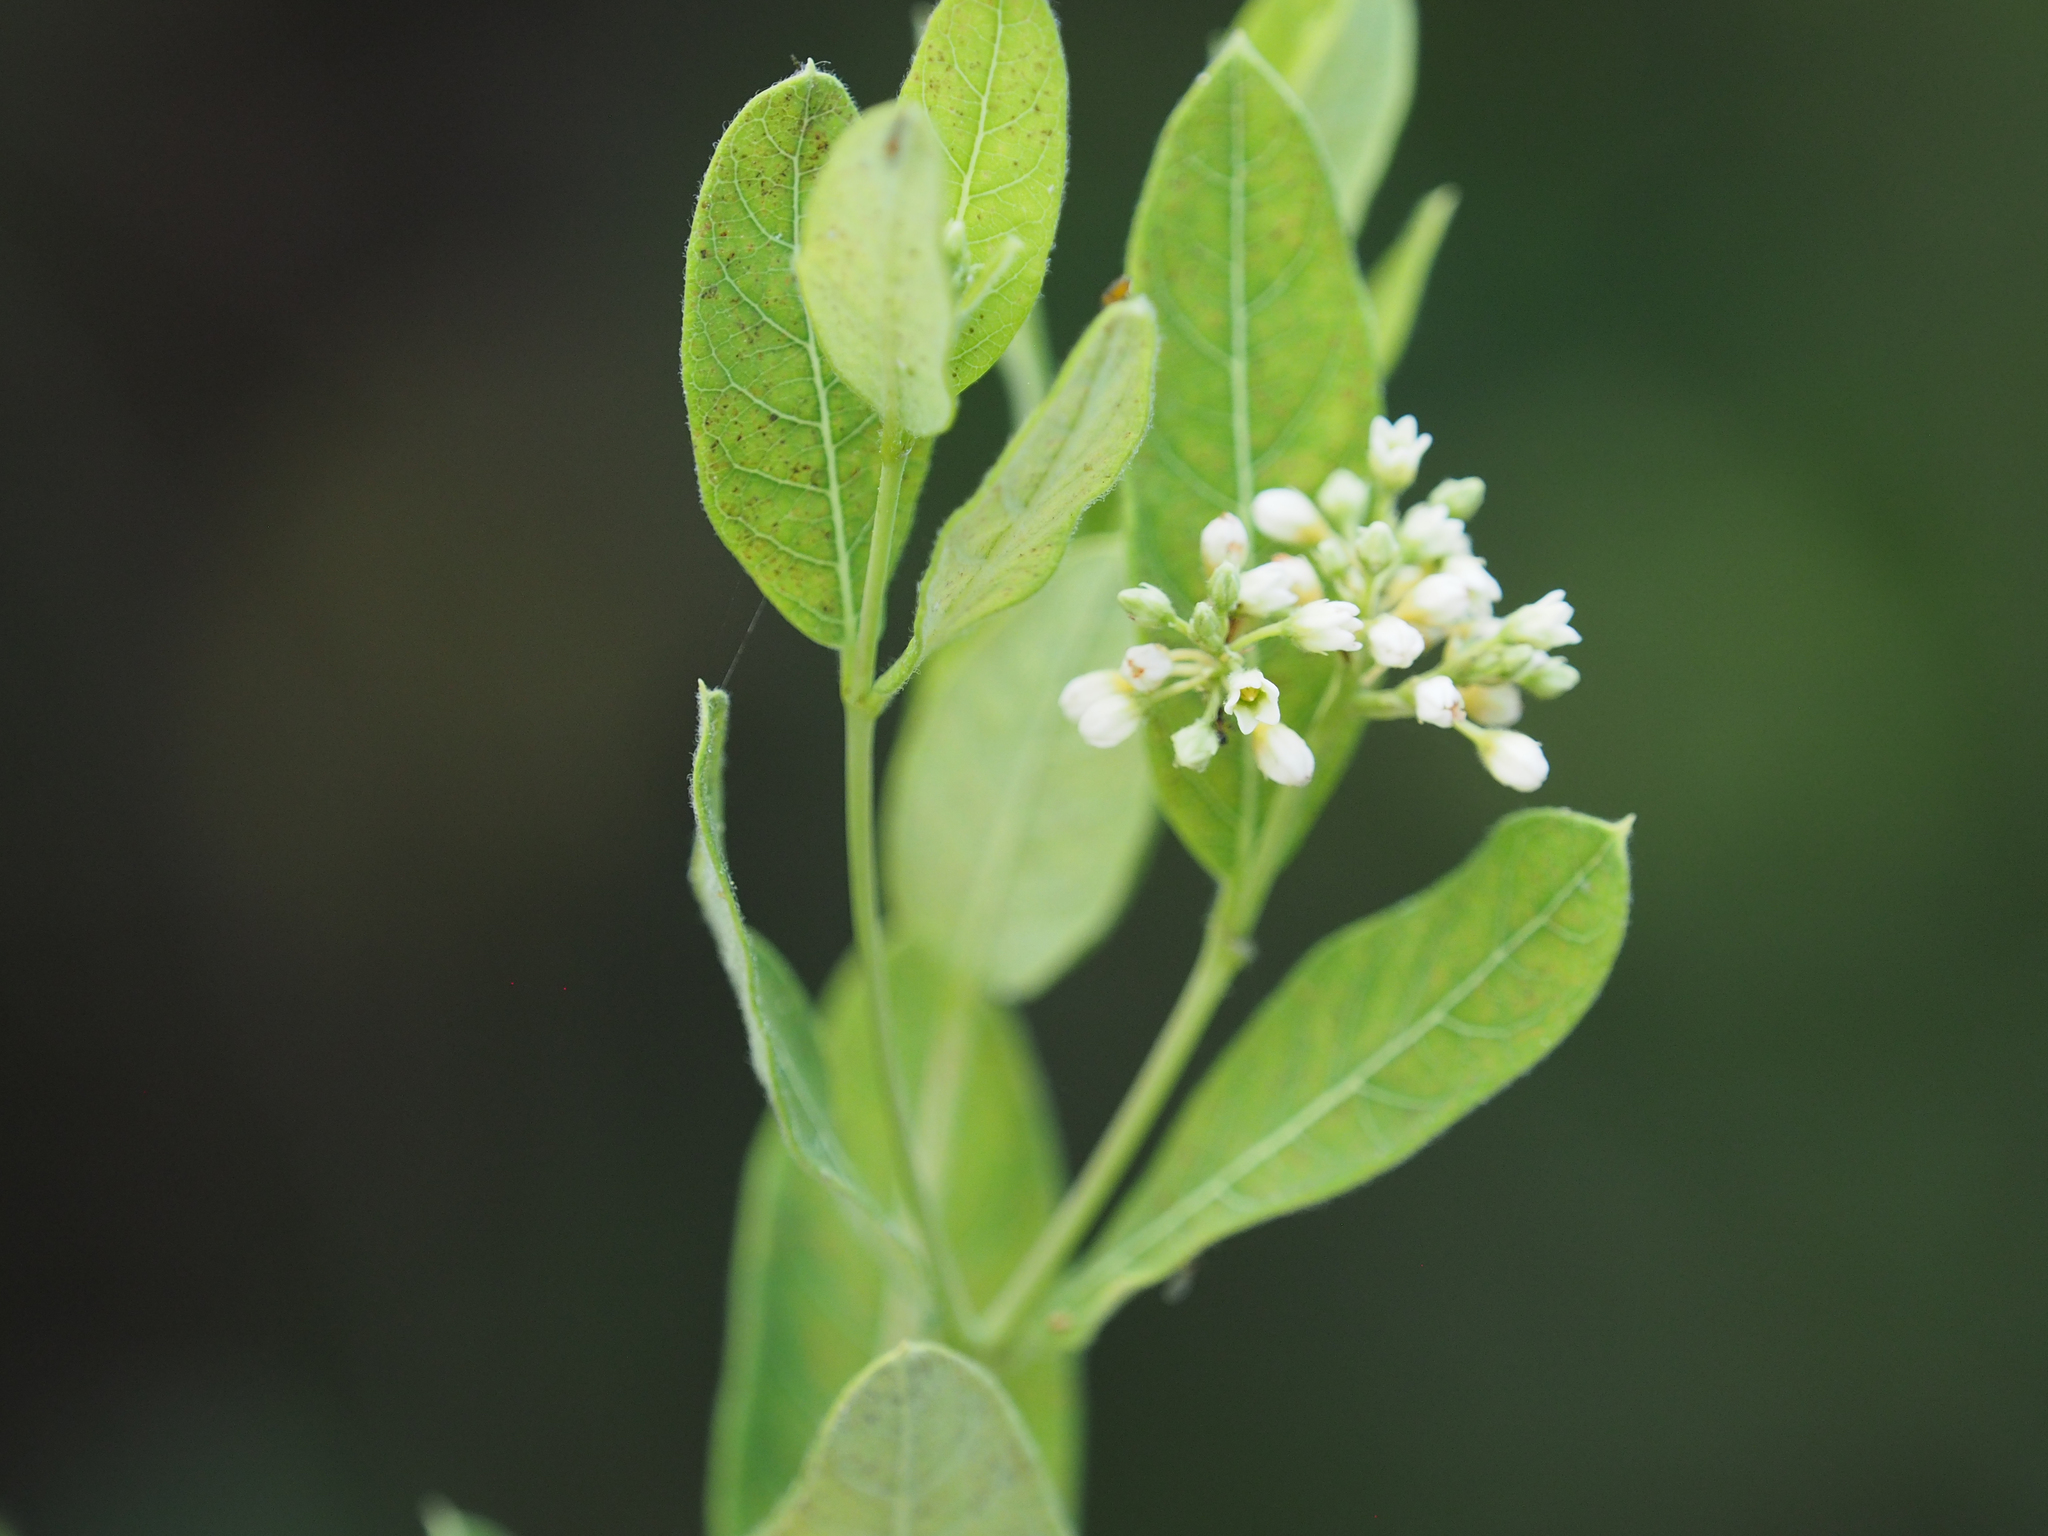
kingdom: Plantae
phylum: Tracheophyta
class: Magnoliopsida
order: Gentianales
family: Apocynaceae
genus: Apocynum
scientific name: Apocynum cannabinum
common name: Hemp dogbane
